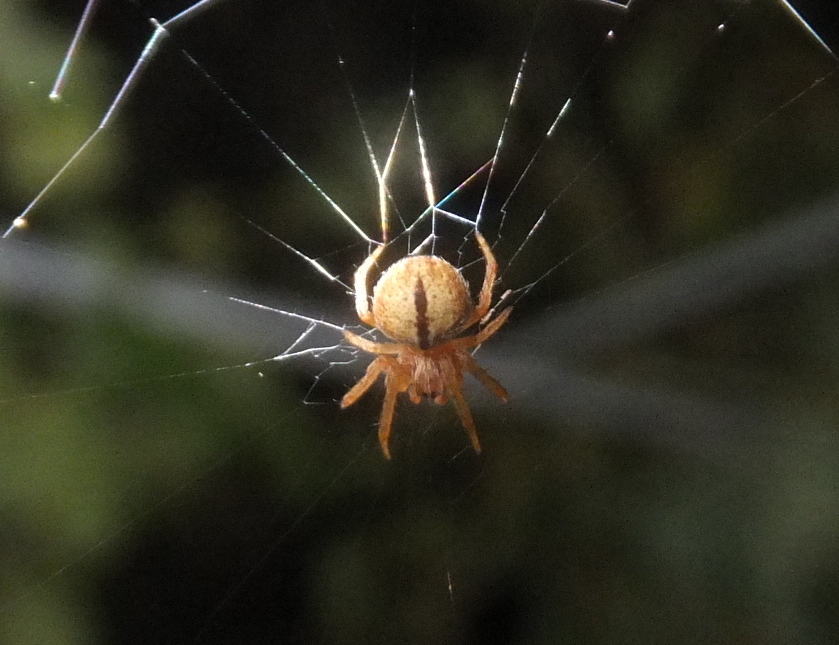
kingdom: Animalia
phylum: Arthropoda
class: Arachnida
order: Araneae
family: Araneidae
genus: Agalenatea
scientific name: Agalenatea redii
